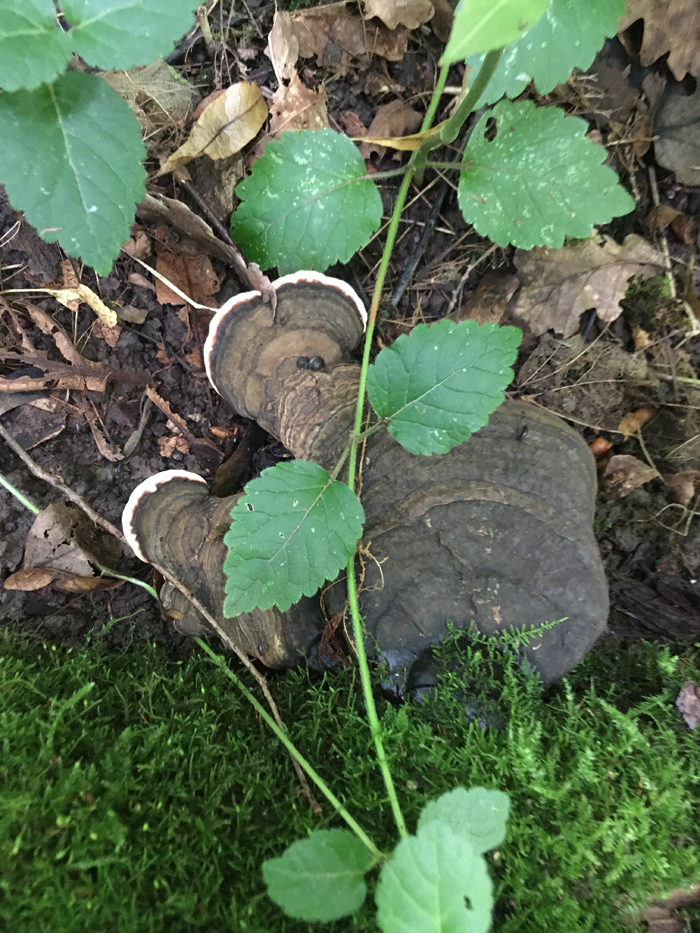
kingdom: Fungi
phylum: Basidiomycota
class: Agaricomycetes
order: Polyporales
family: Polyporaceae
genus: Ganoderma
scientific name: Ganoderma applanatum
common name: Artist's bracket
